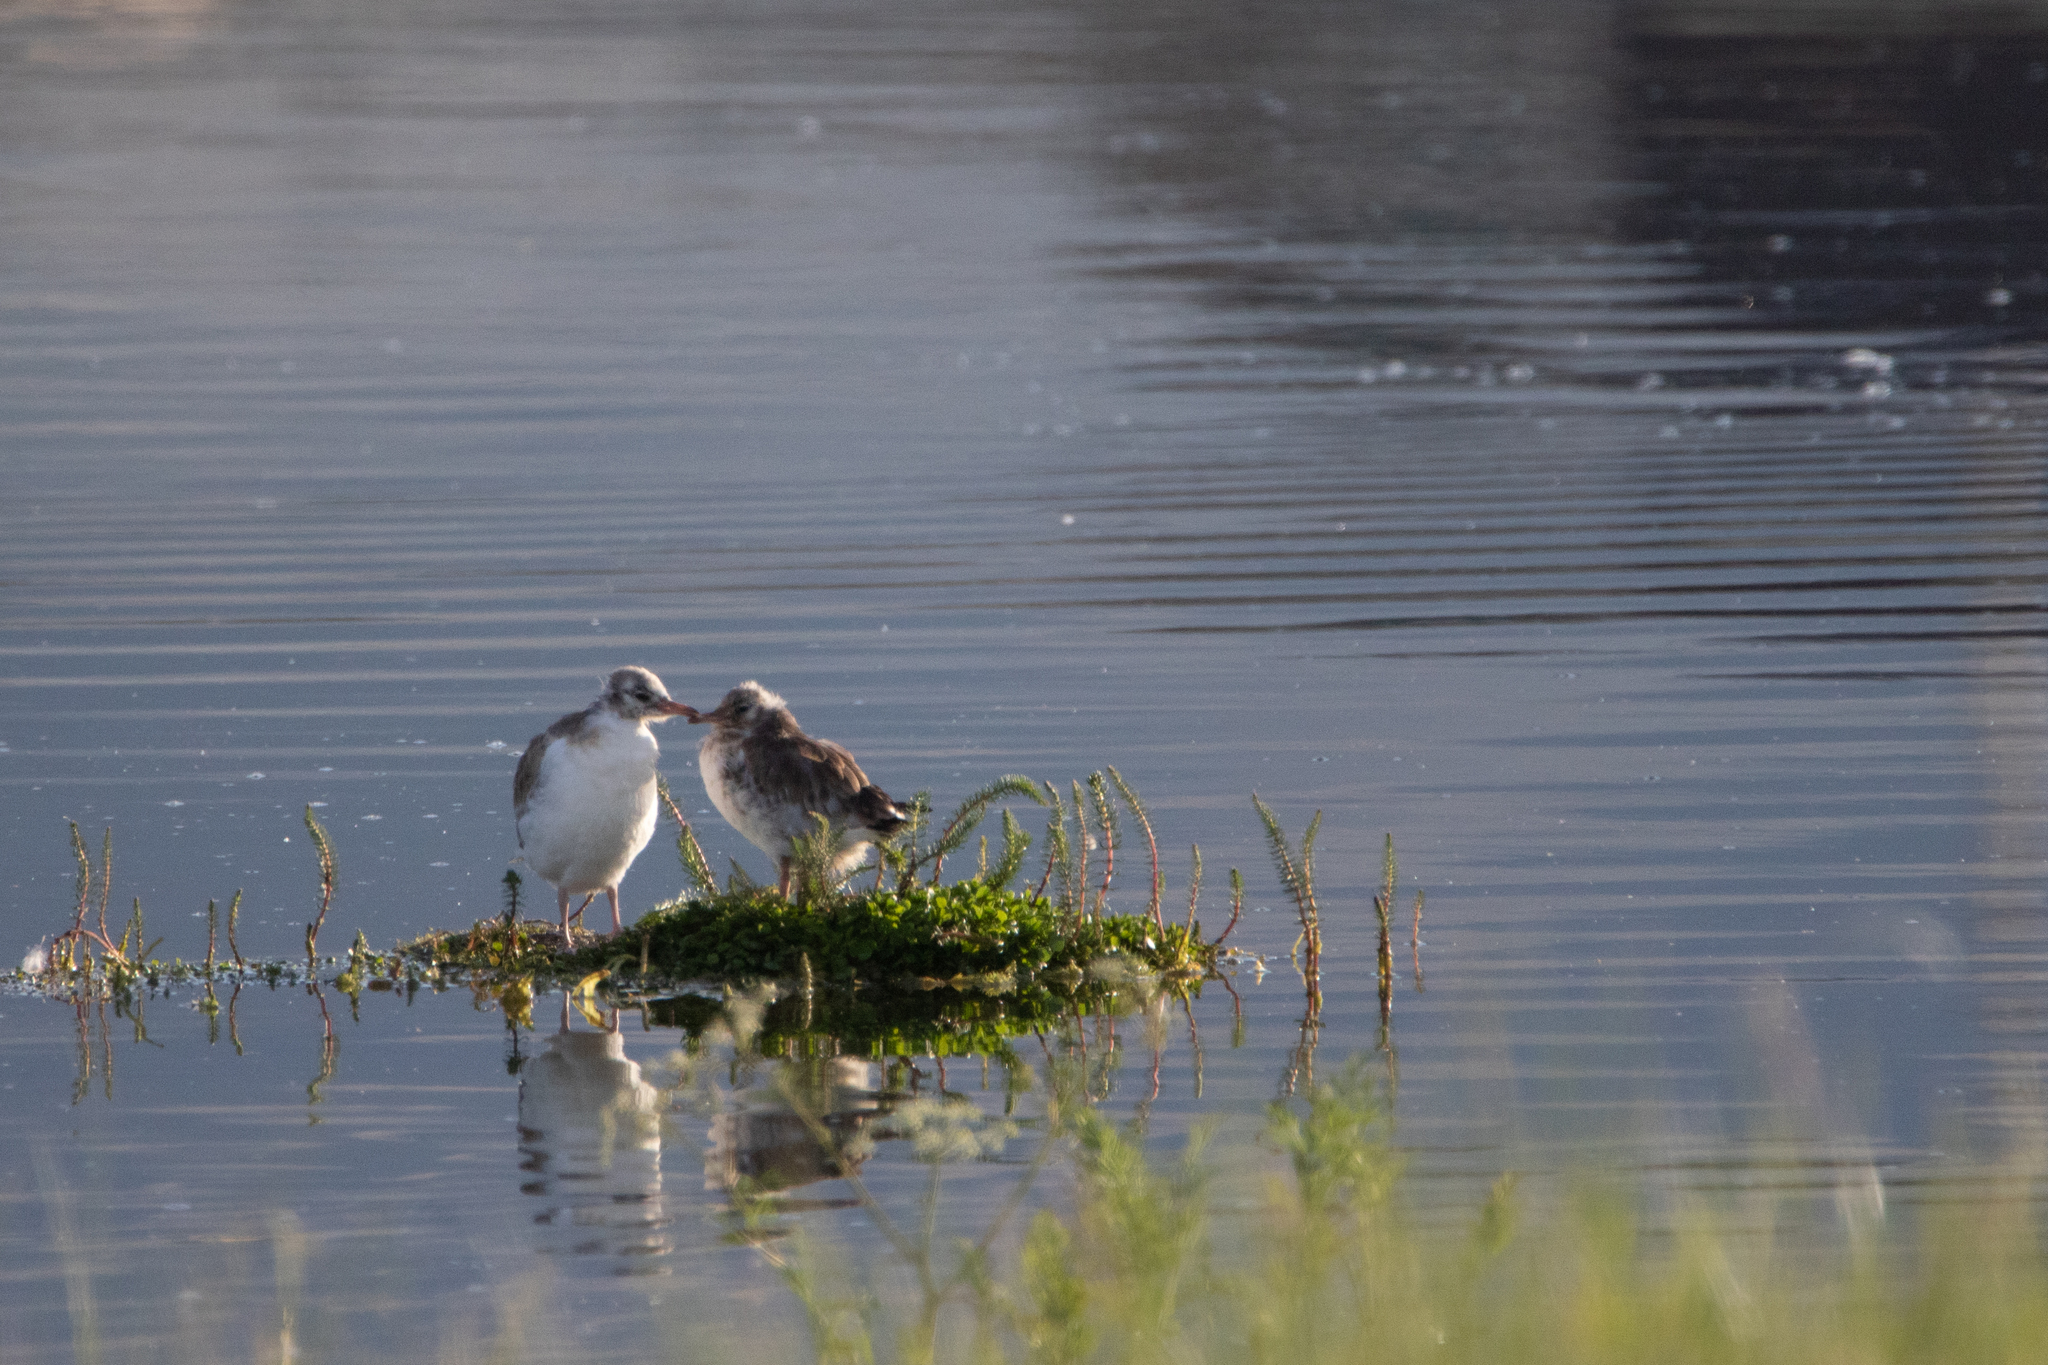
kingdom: Animalia
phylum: Chordata
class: Aves
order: Charadriiformes
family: Laridae
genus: Chroicocephalus
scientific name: Chroicocephalus ridibundus
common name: Black-headed gull
